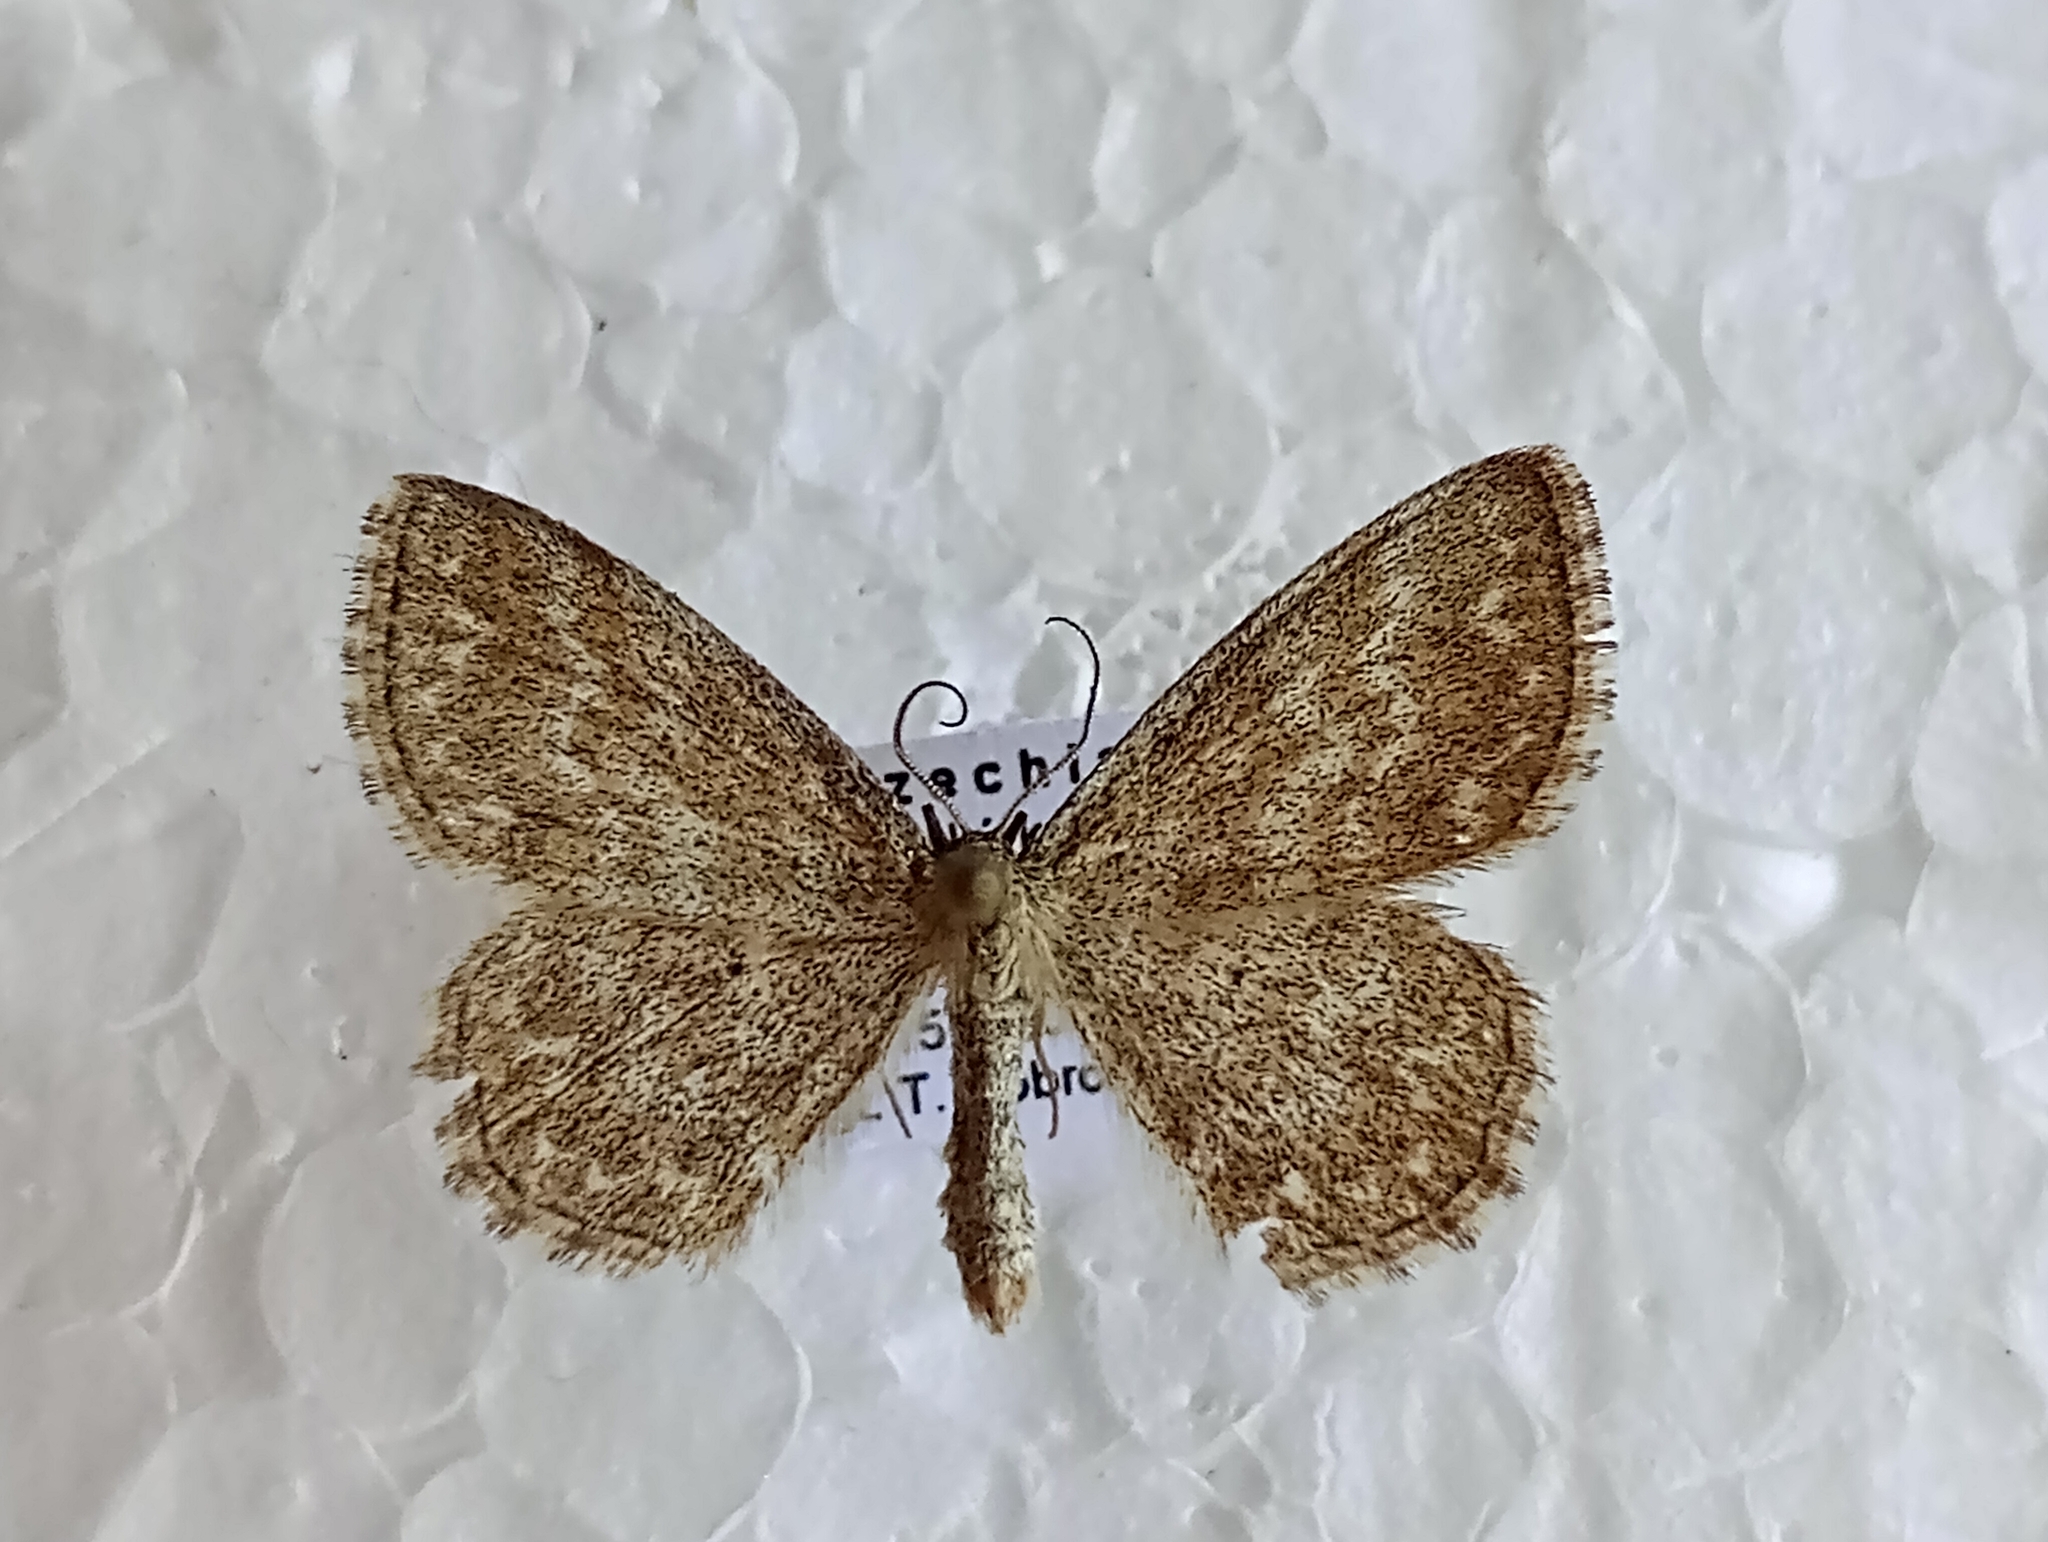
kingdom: Animalia
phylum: Arthropoda
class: Insecta
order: Lepidoptera
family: Geometridae
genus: Scopula
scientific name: Scopula immorata
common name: Lewes wave
